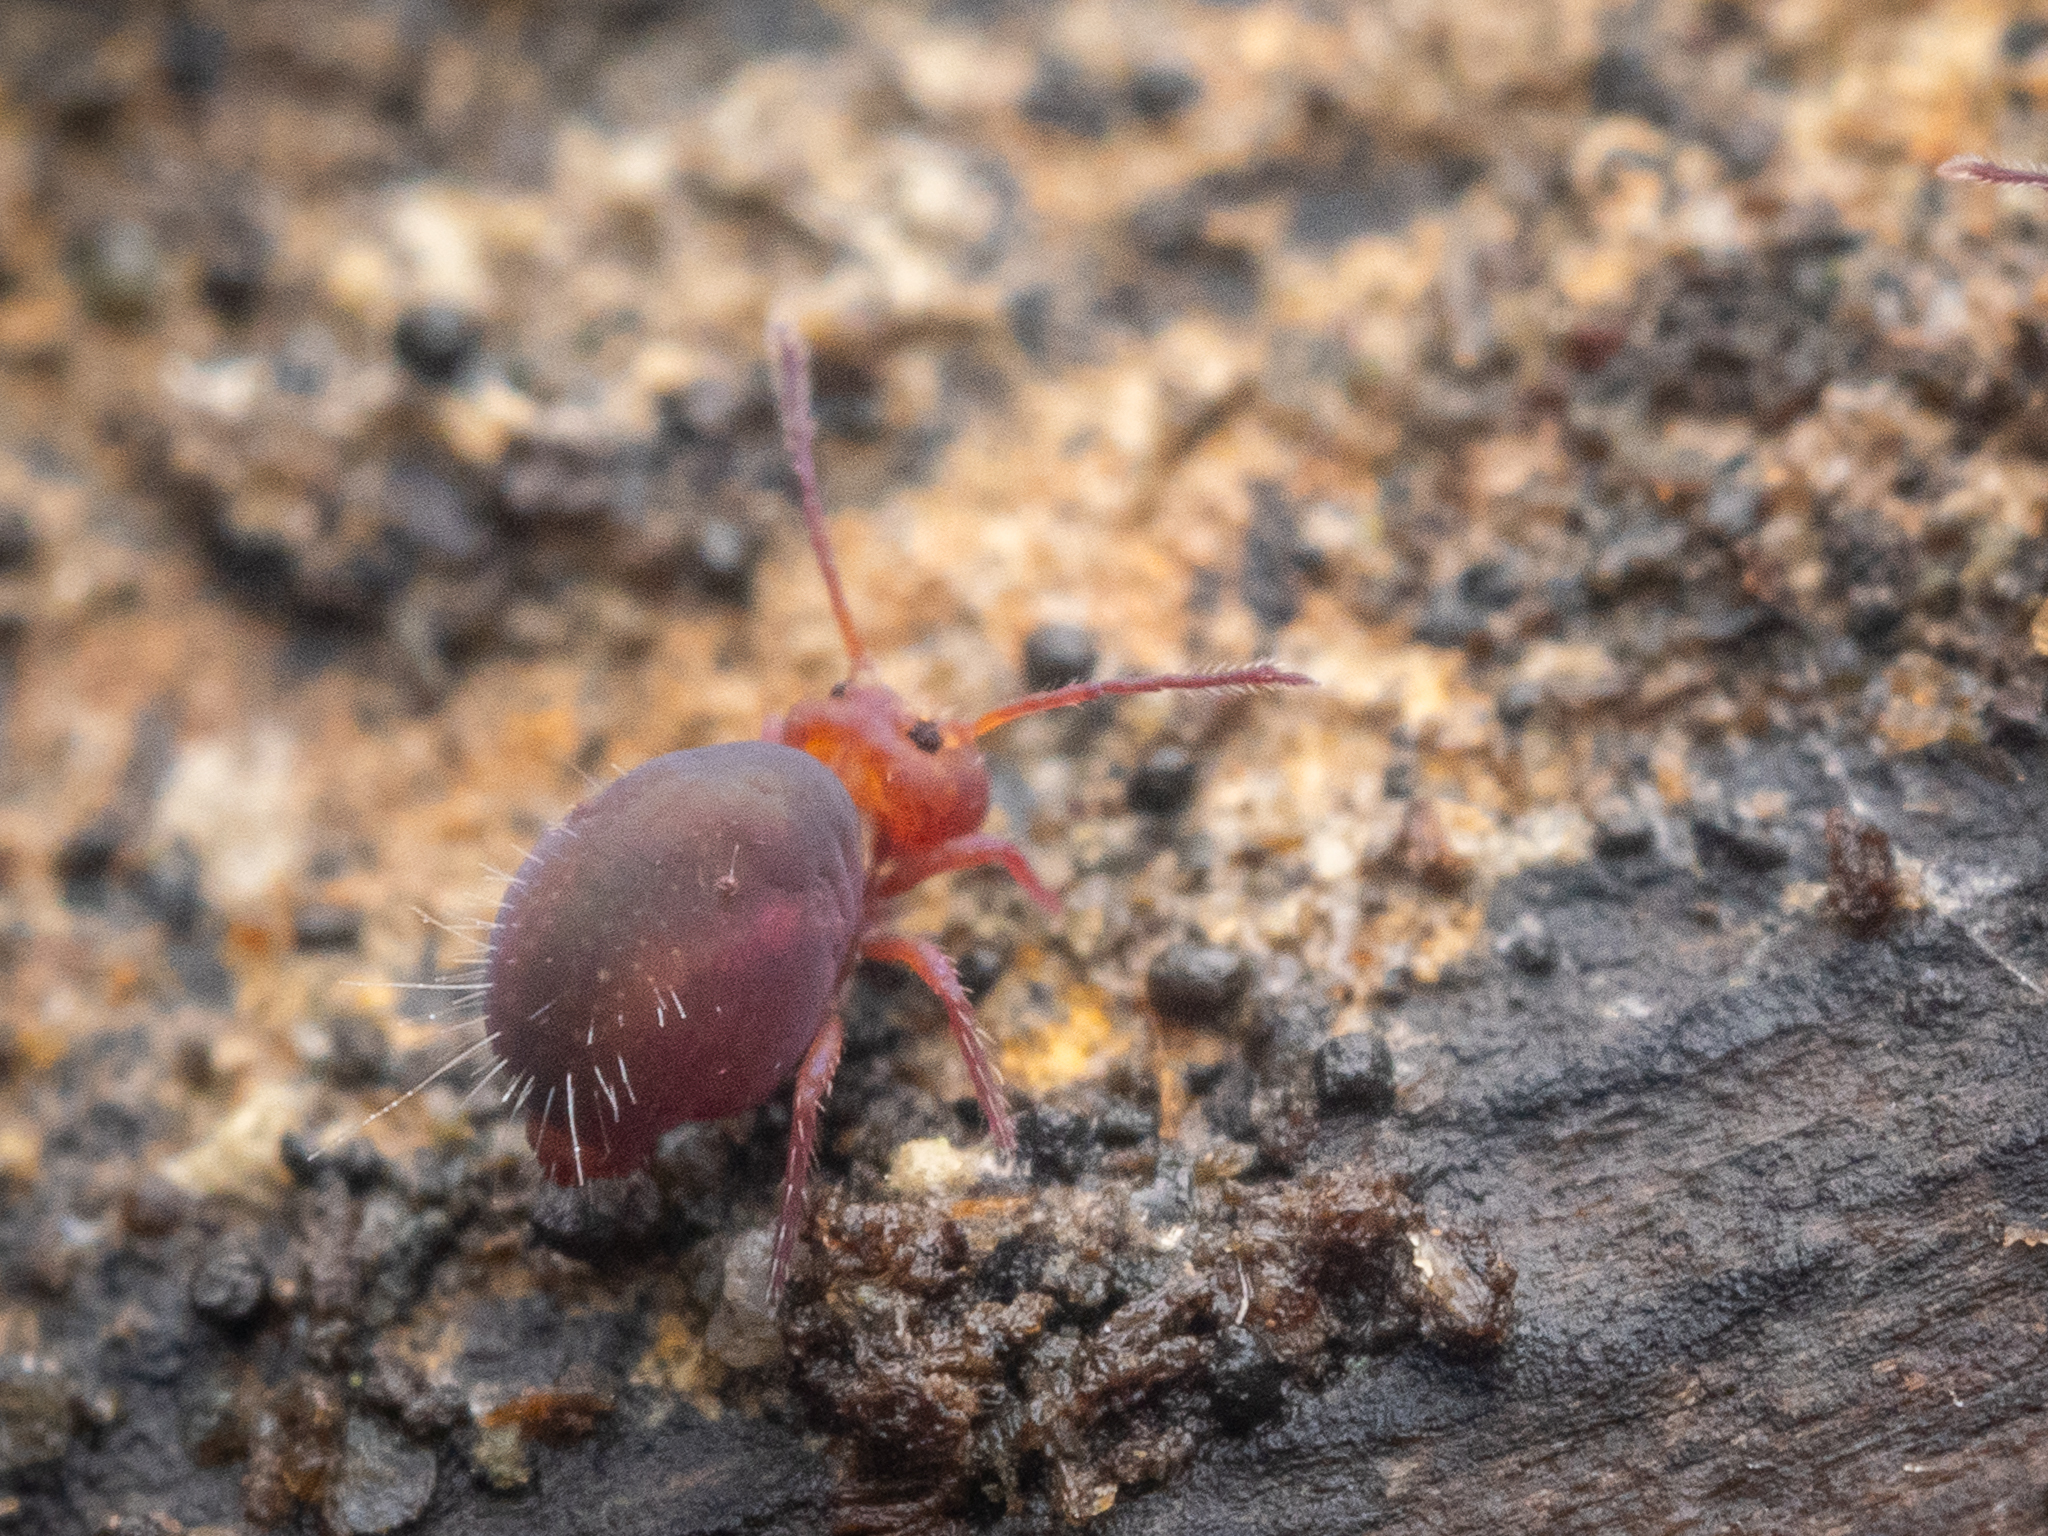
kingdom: Animalia
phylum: Arthropoda
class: Collembola
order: Symphypleona
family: Dicyrtomidae
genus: Dicyrtoma
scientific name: Dicyrtoma fusca
